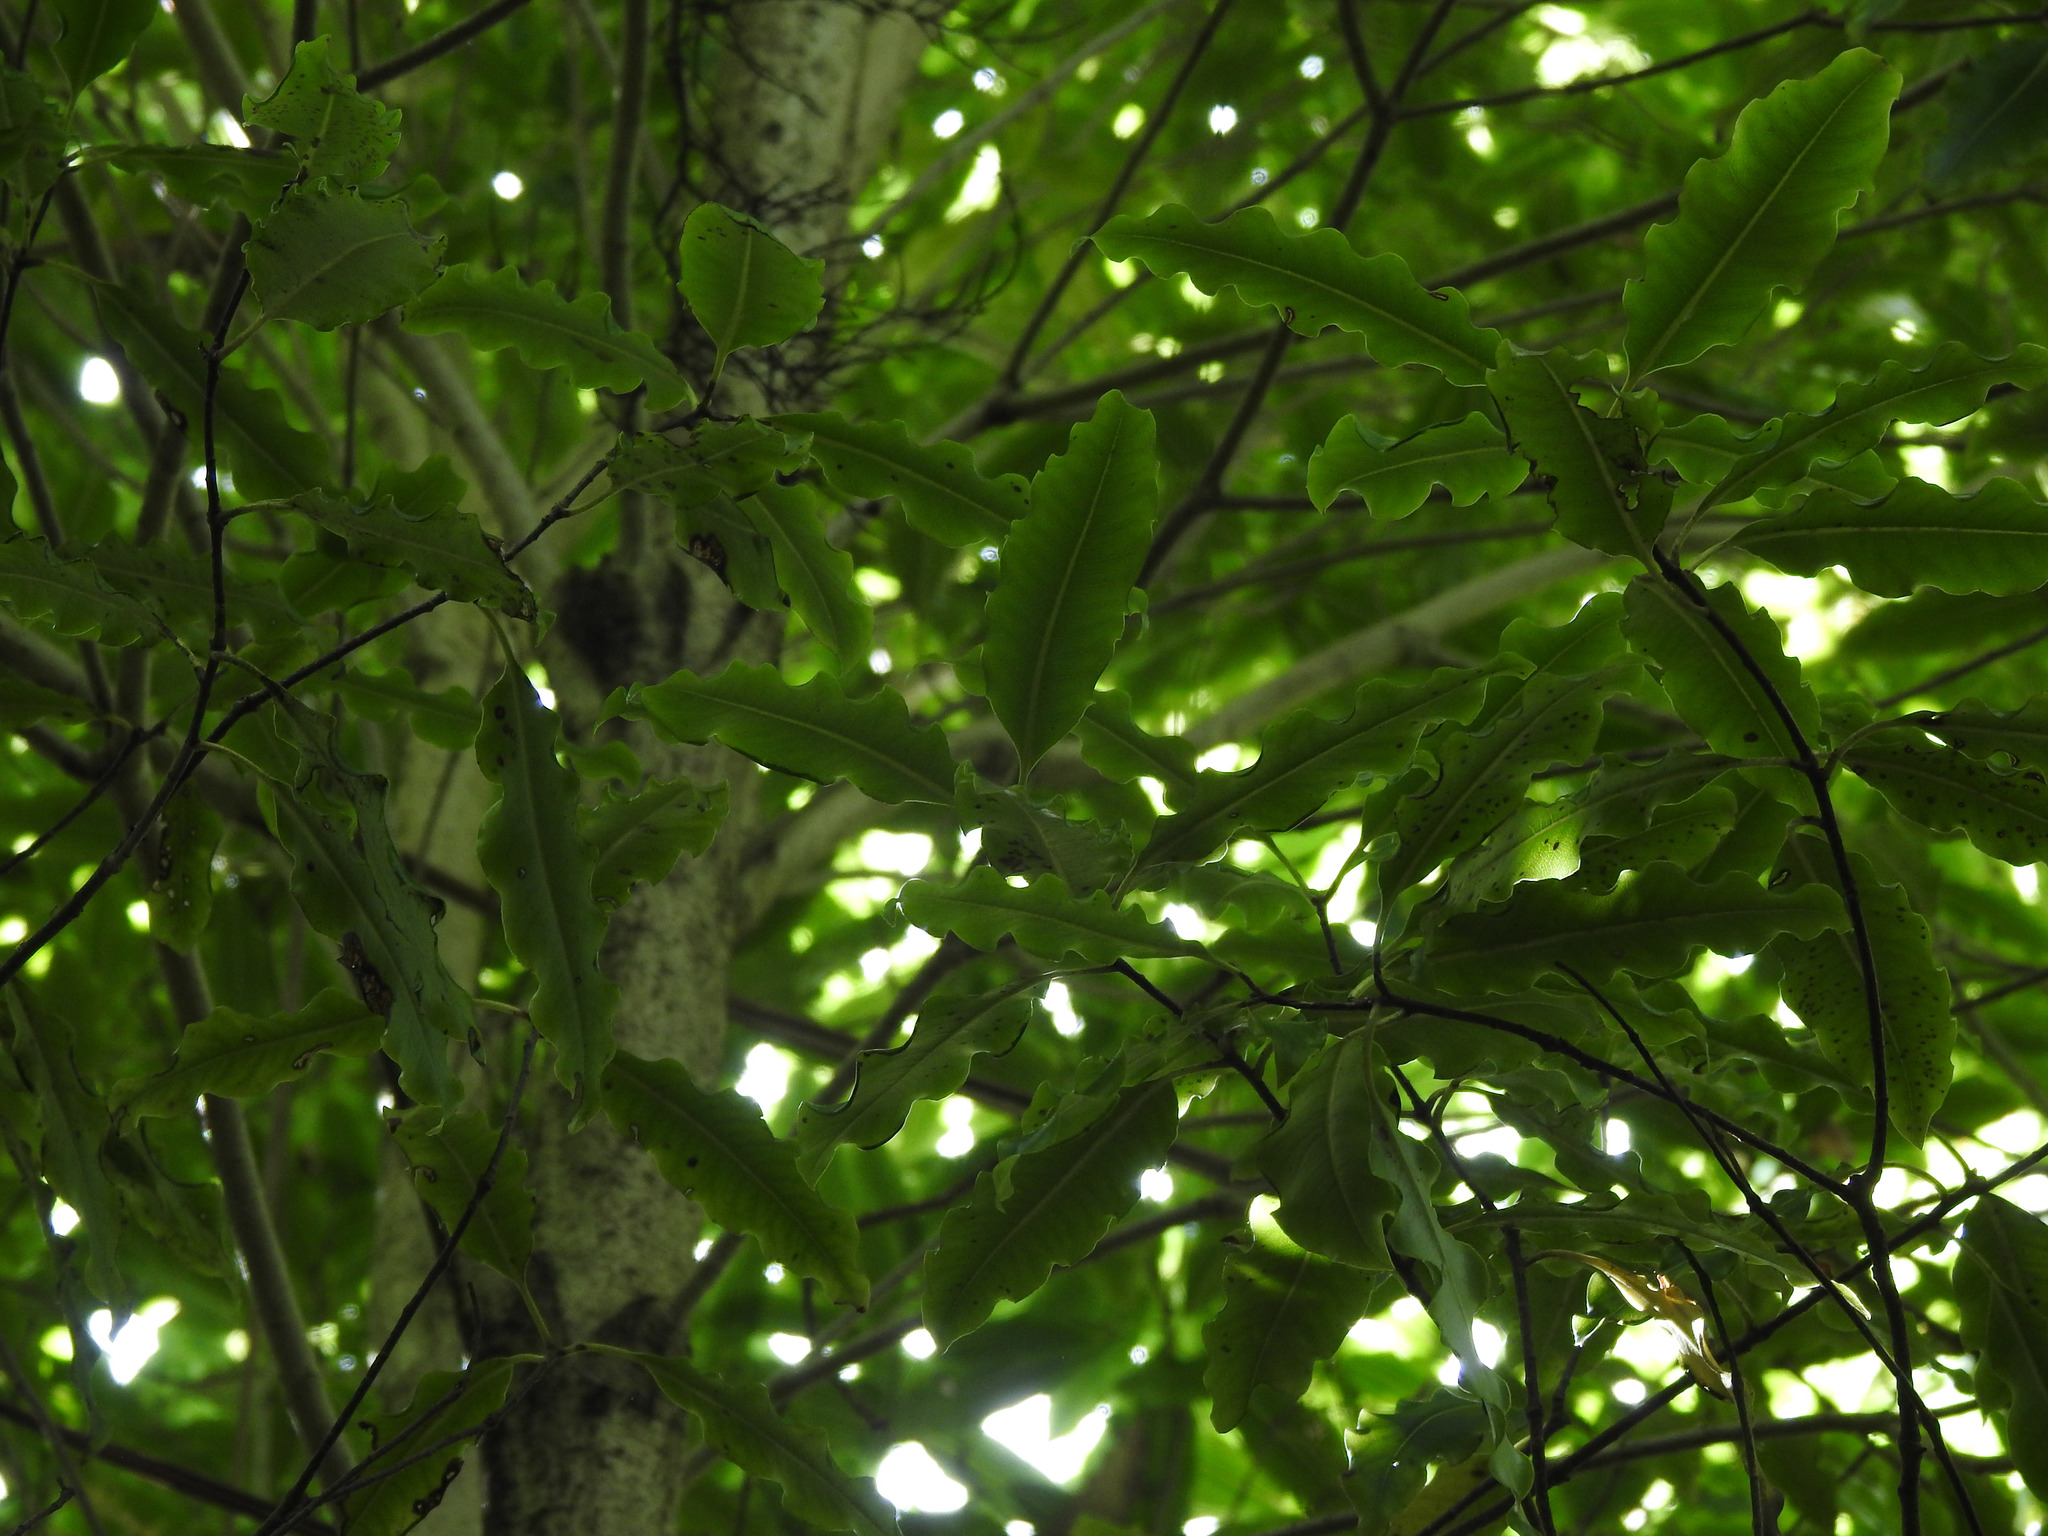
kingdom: Plantae
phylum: Tracheophyta
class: Magnoliopsida
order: Apiales
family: Pittosporaceae
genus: Pittosporum
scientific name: Pittosporum eugenioides
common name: Lemonwood
